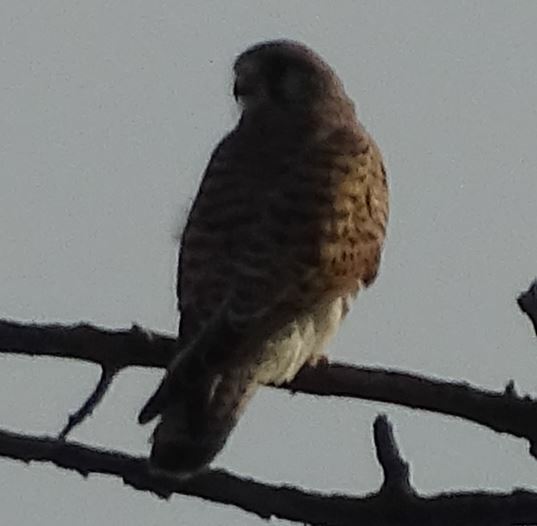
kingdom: Animalia
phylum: Chordata
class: Aves
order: Falconiformes
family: Falconidae
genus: Falco
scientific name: Falco tinnunculus
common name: Common kestrel
